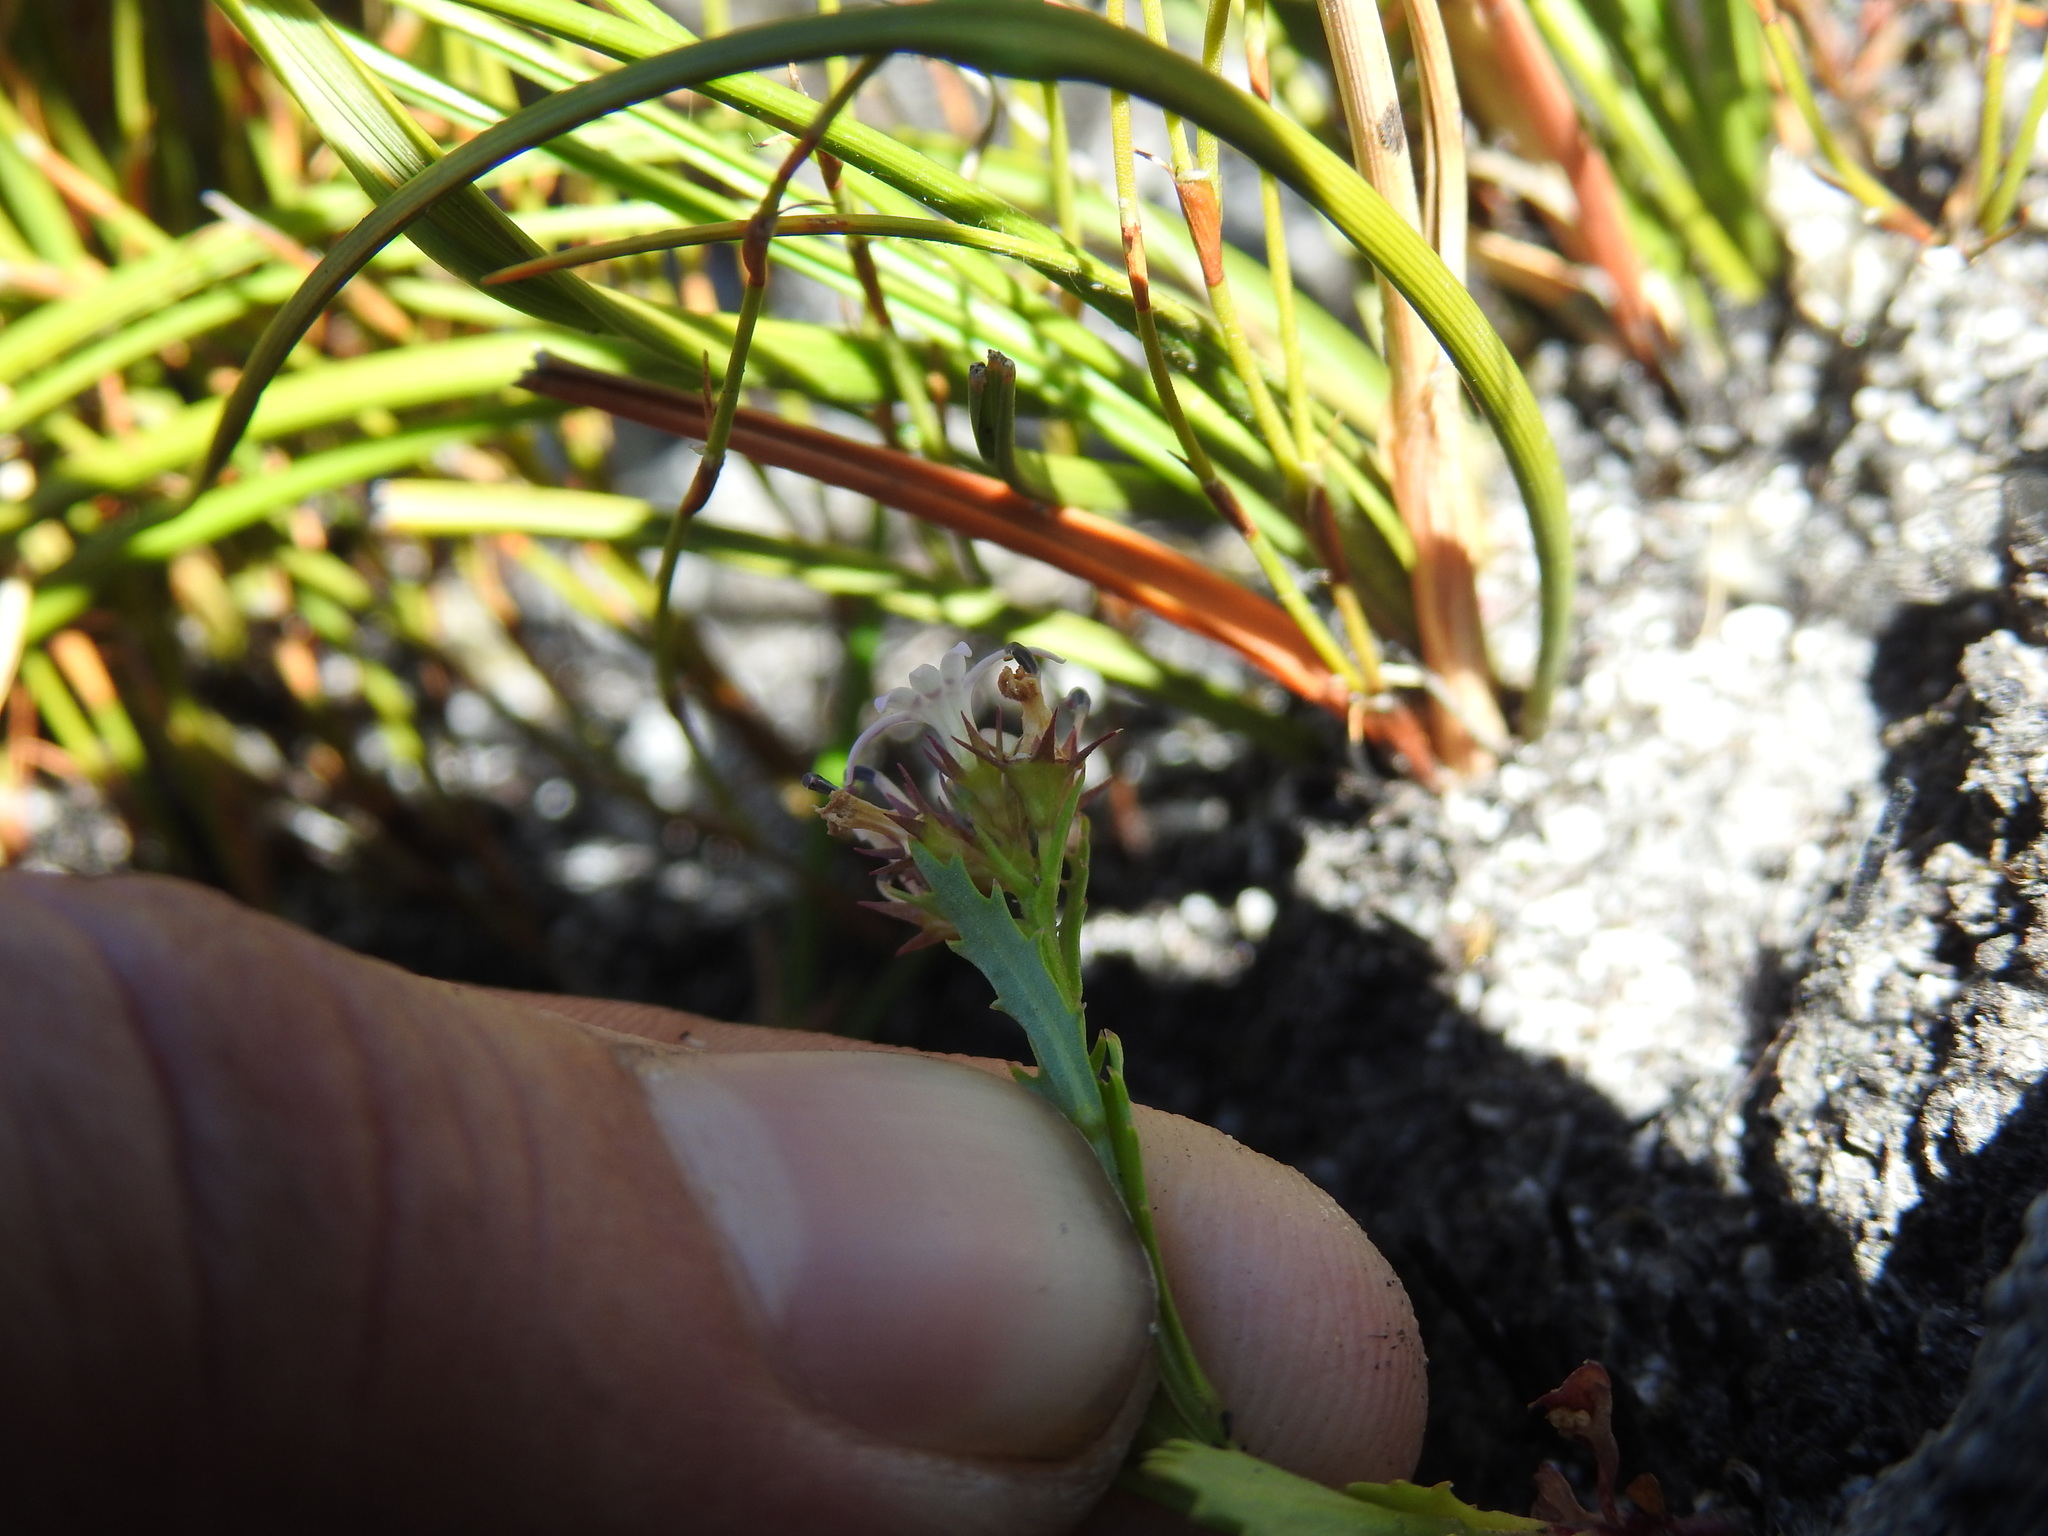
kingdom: Plantae
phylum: Tracheophyta
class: Magnoliopsida
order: Asterales
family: Campanulaceae
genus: Lobelia
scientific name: Lobelia jasionoides
